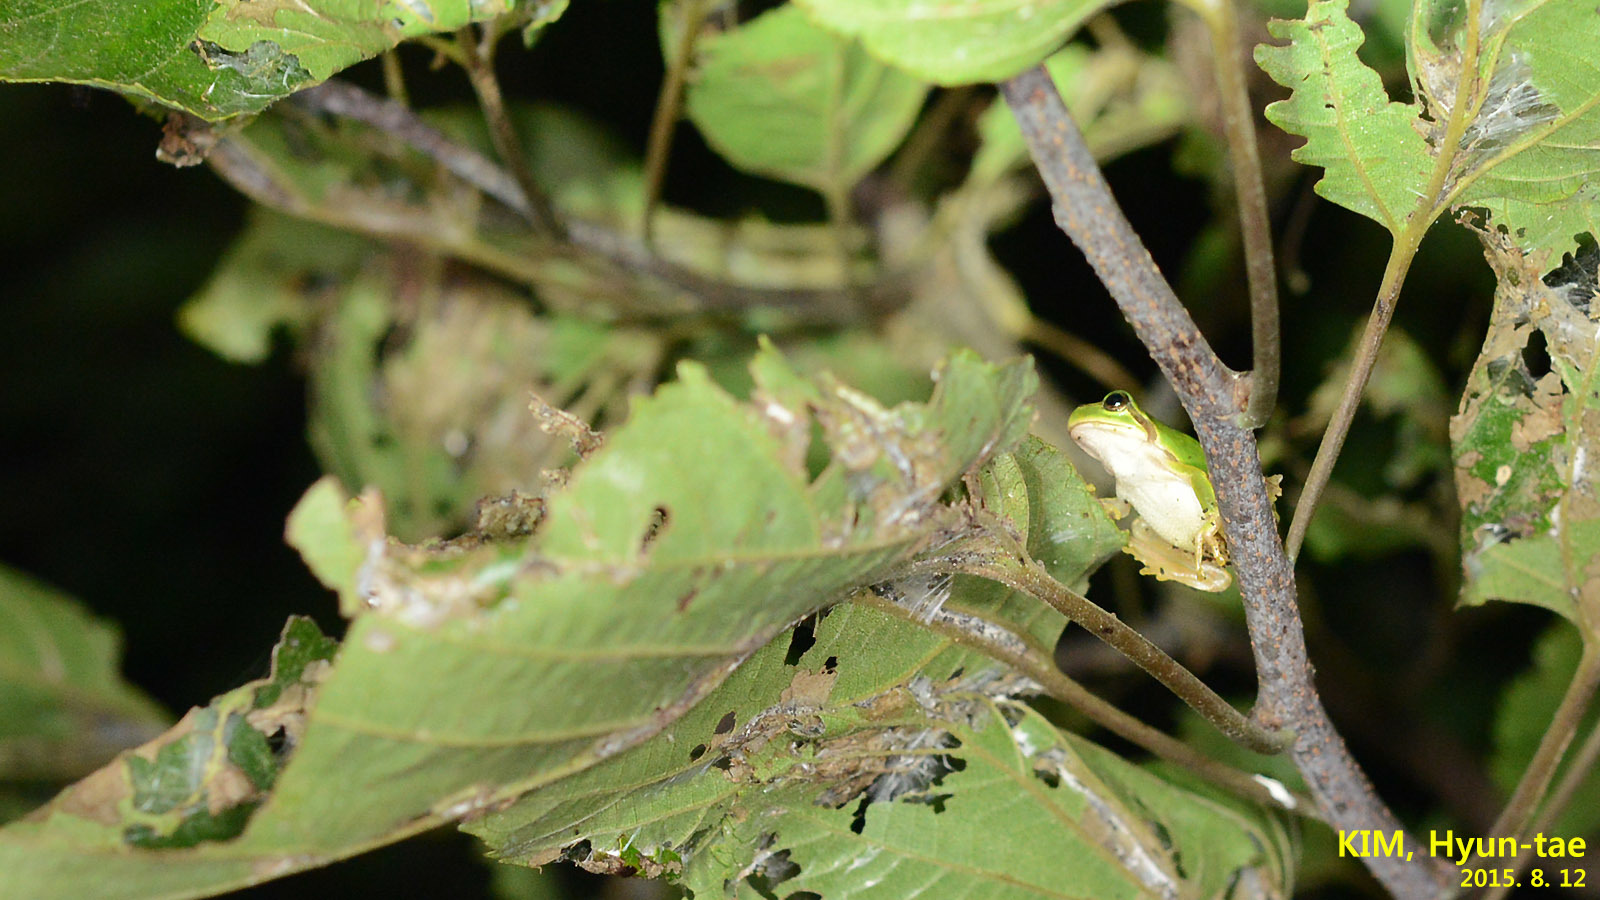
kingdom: Animalia
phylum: Chordata
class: Amphibia
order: Anura
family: Hylidae
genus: Dryophytes
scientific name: Dryophytes japonicus
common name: Japanese treefrog
